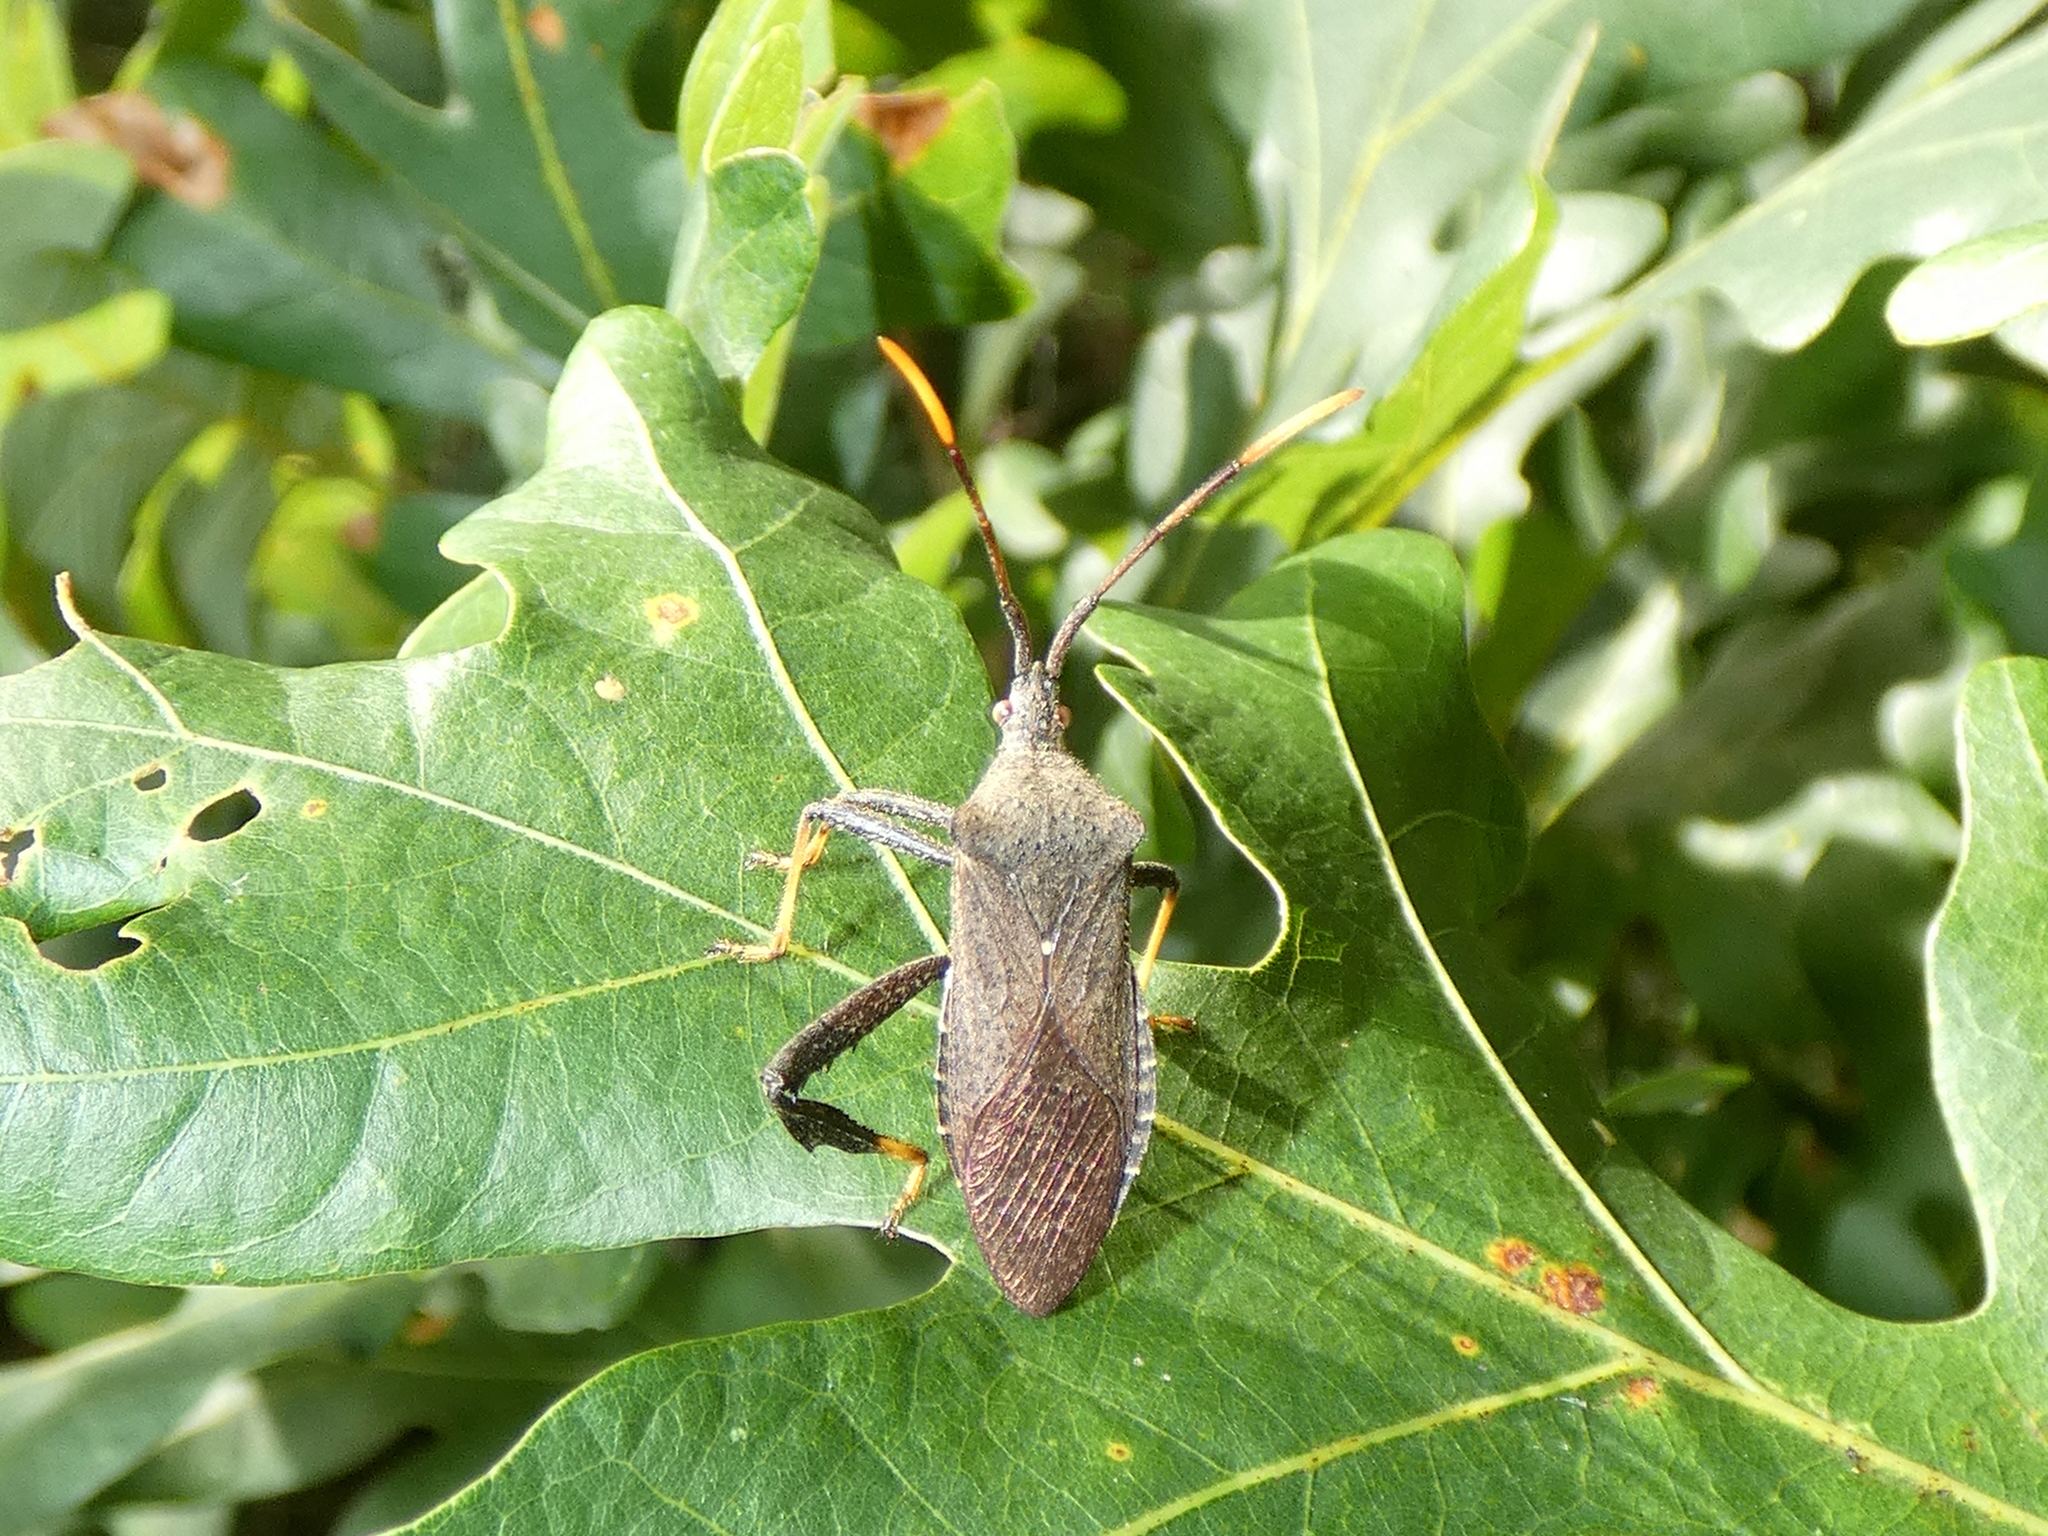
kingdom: Animalia
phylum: Arthropoda
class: Insecta
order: Hemiptera
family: Coreidae
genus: Acanthocephala
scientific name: Acanthocephala terminalis
